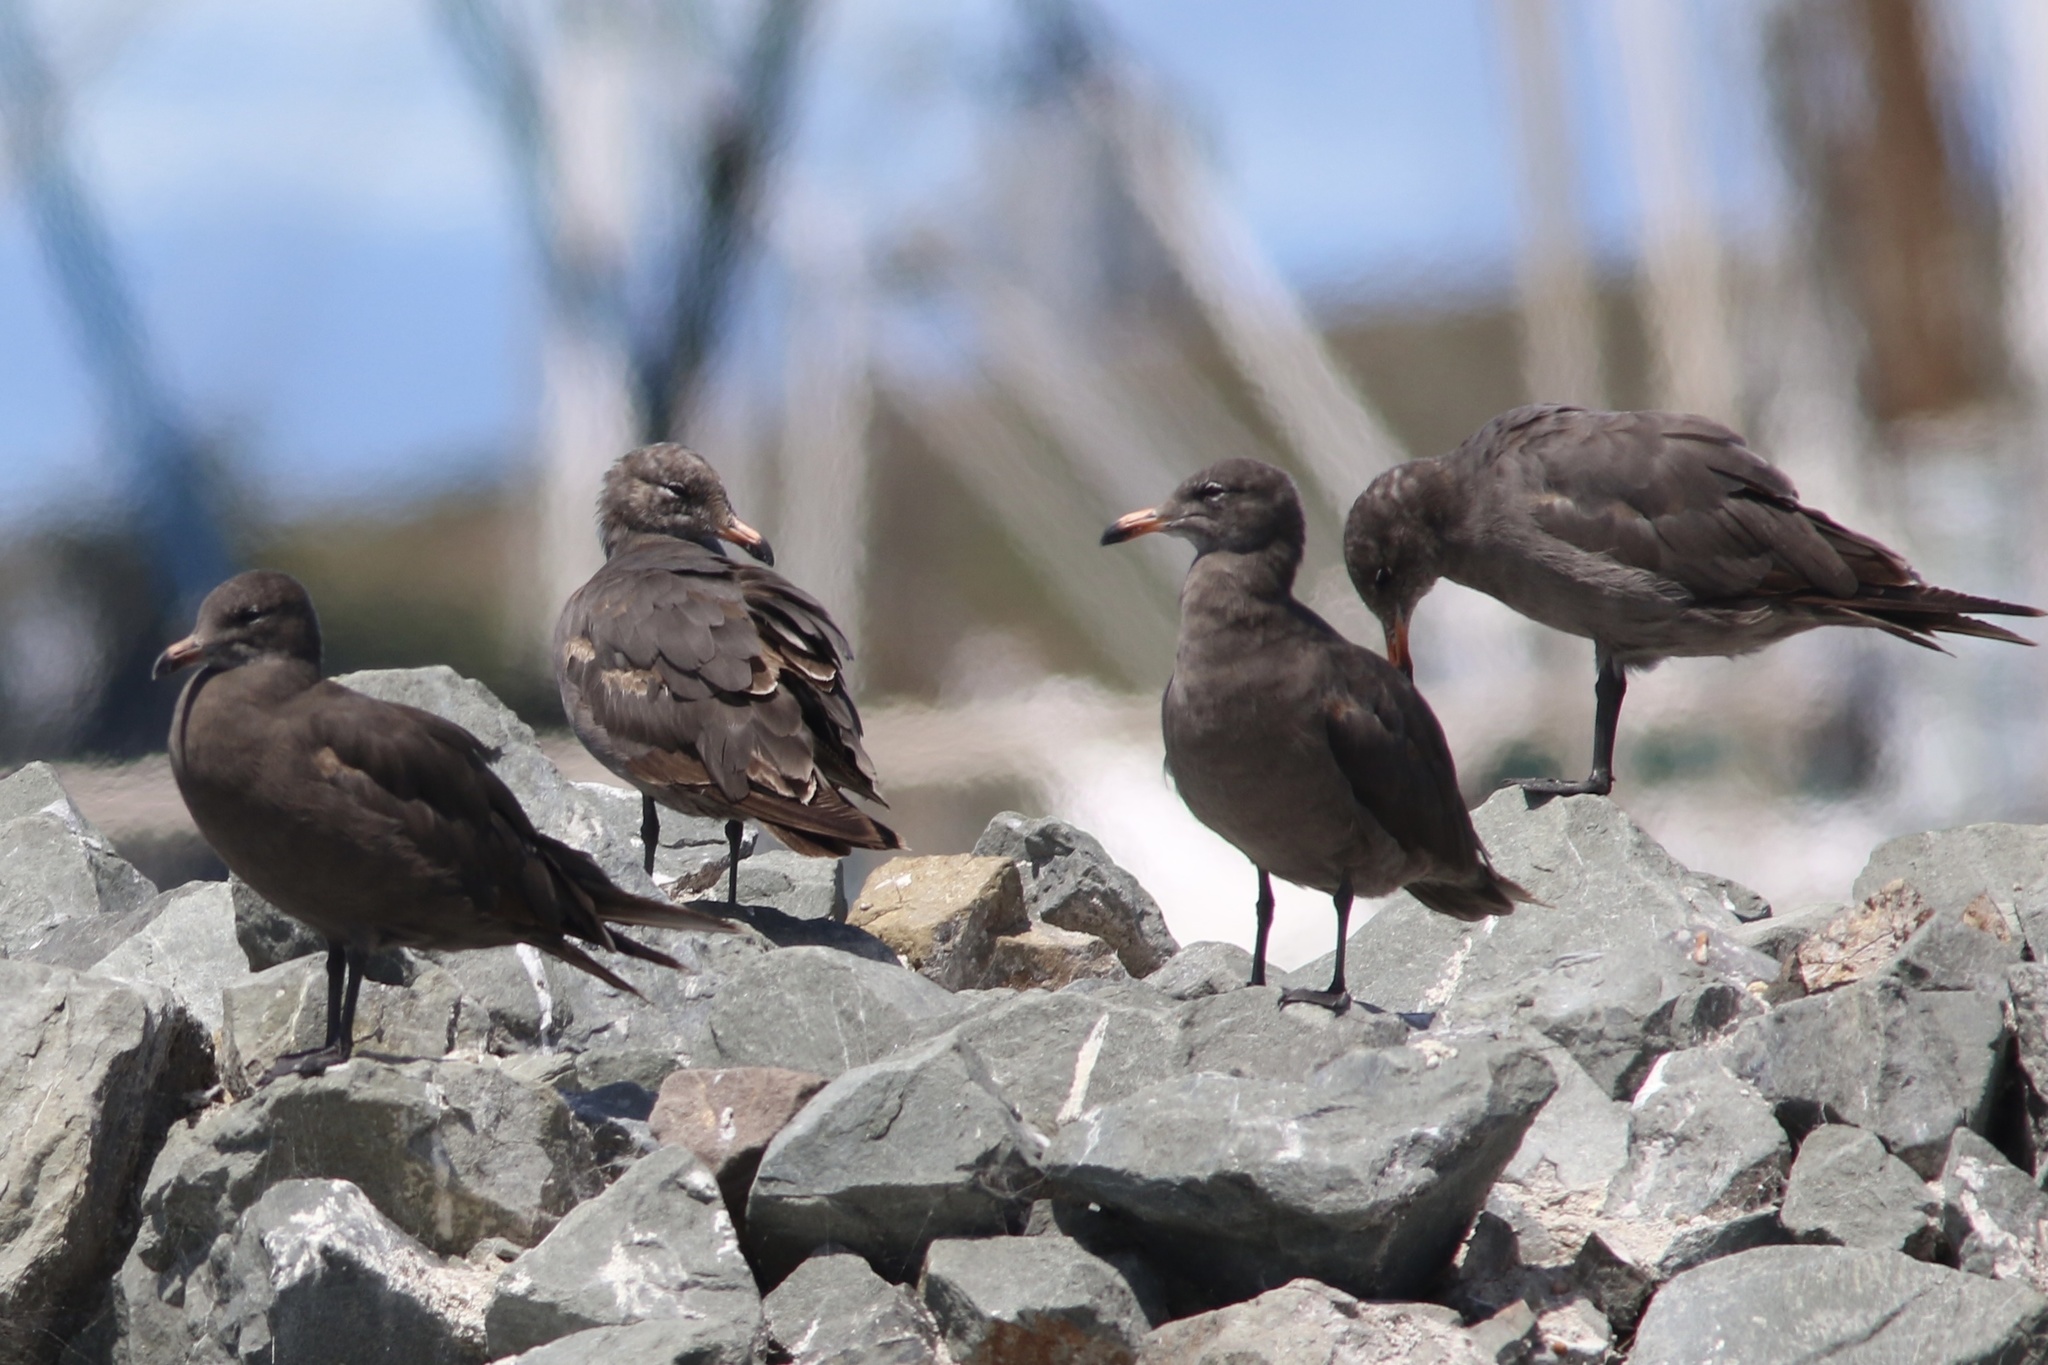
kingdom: Animalia
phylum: Chordata
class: Aves
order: Charadriiformes
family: Laridae
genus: Larus
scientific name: Larus heermanni
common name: Heermann's gull
